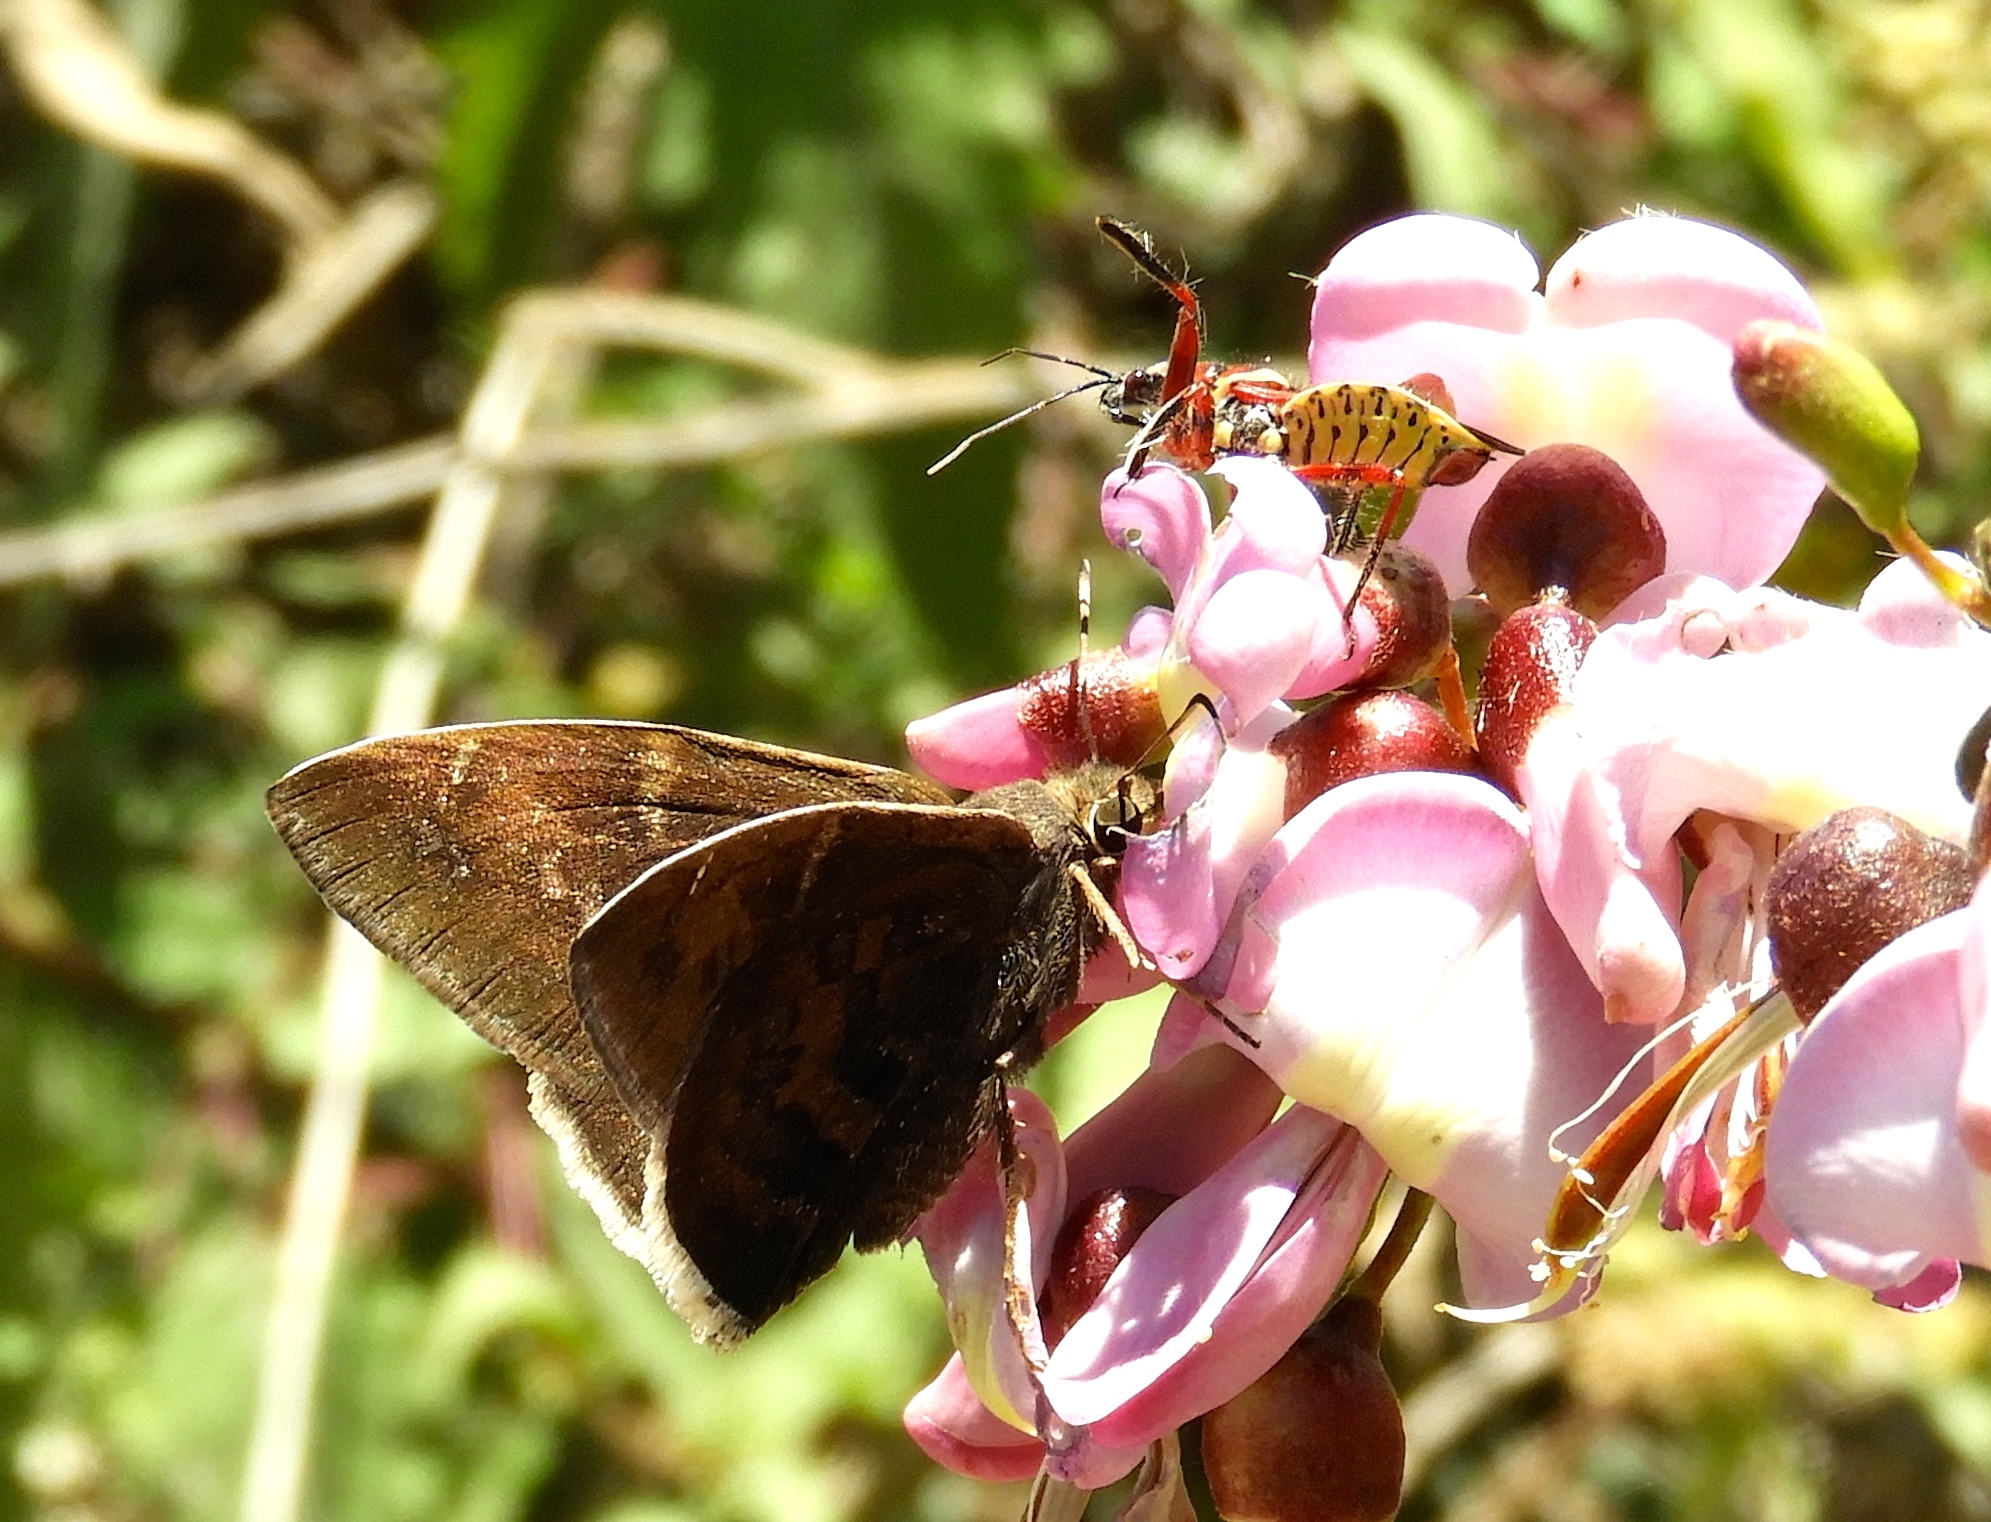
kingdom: Animalia
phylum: Arthropoda
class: Insecta
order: Lepidoptera
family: Hesperiidae
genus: Achalarus
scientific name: Achalarus Murgaria albociliatus
